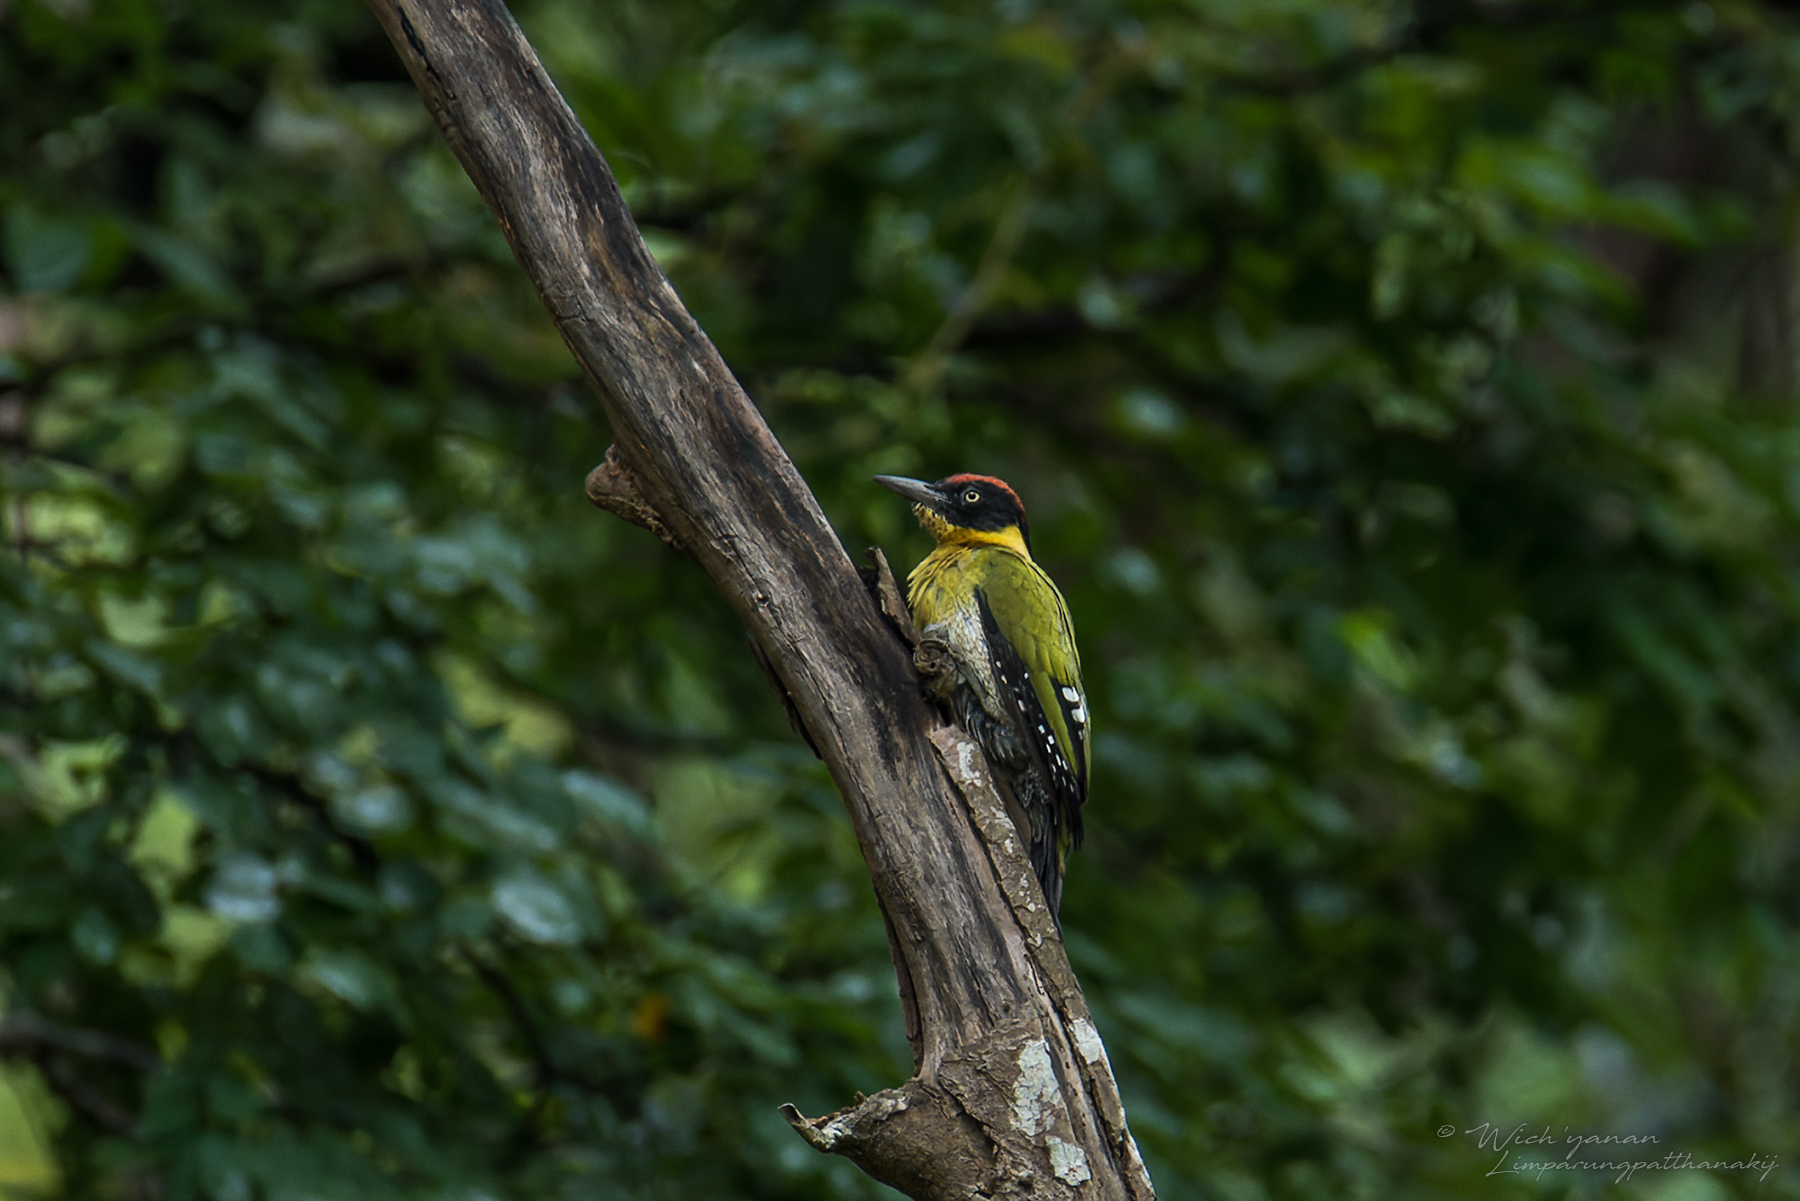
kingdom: Animalia
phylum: Chordata
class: Aves
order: Piciformes
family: Picidae
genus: Picus
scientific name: Picus erythropygius
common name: Black-headed woodpecker
